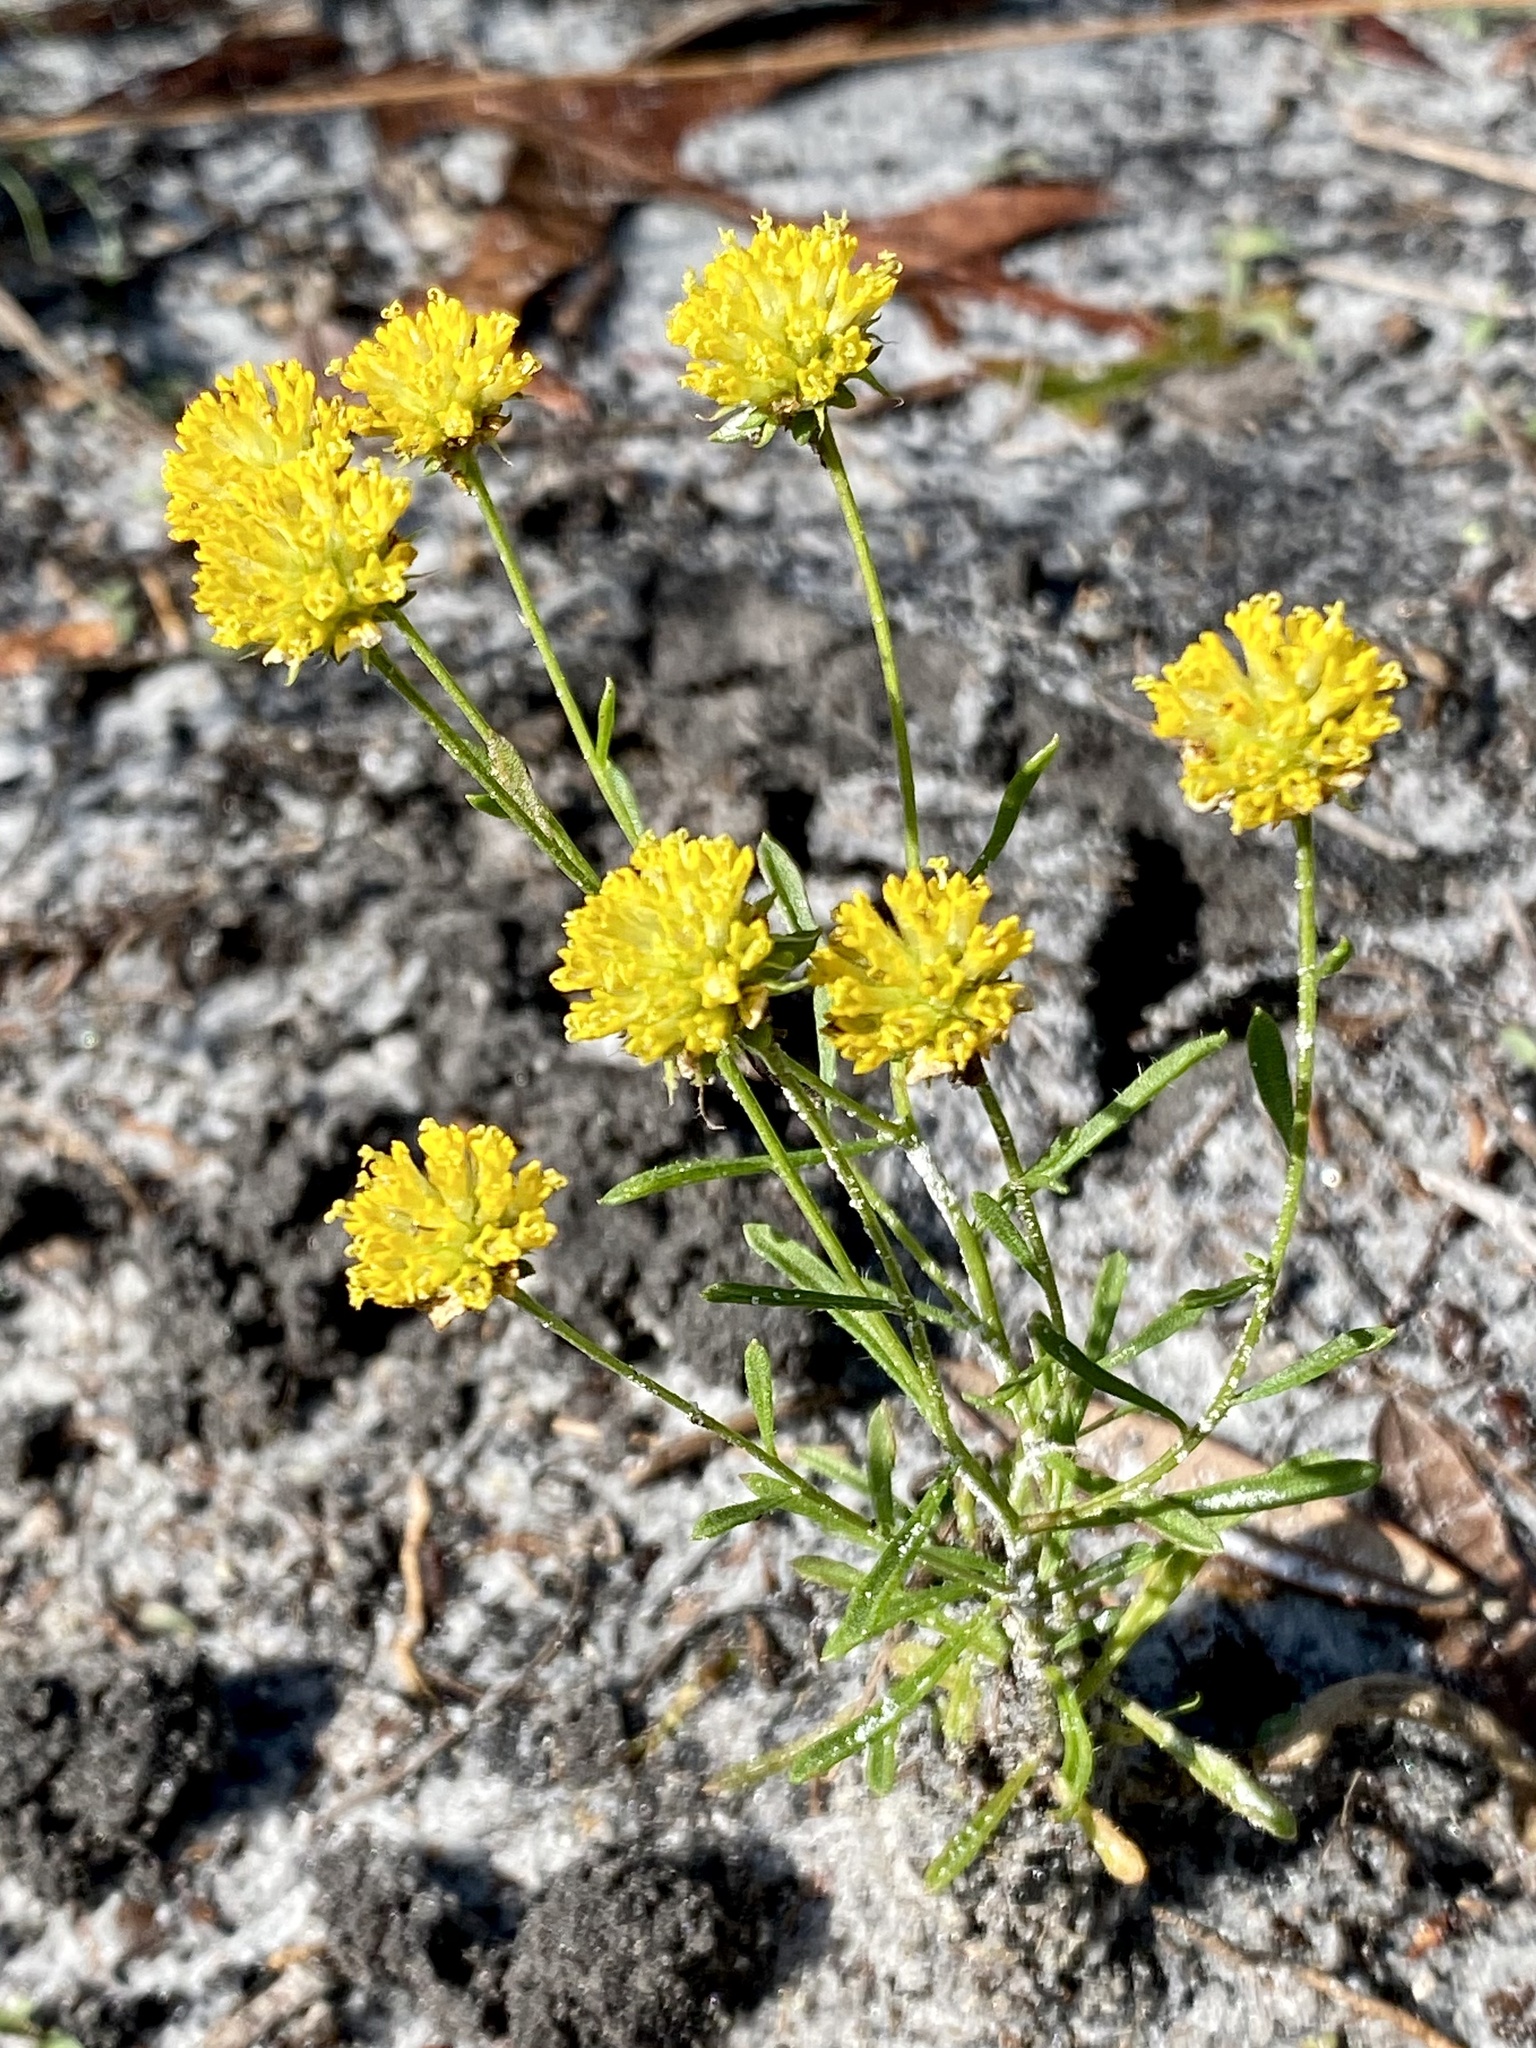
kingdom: Plantae
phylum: Tracheophyta
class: Magnoliopsida
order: Asterales
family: Asteraceae
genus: Balduina
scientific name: Balduina angustifolia
